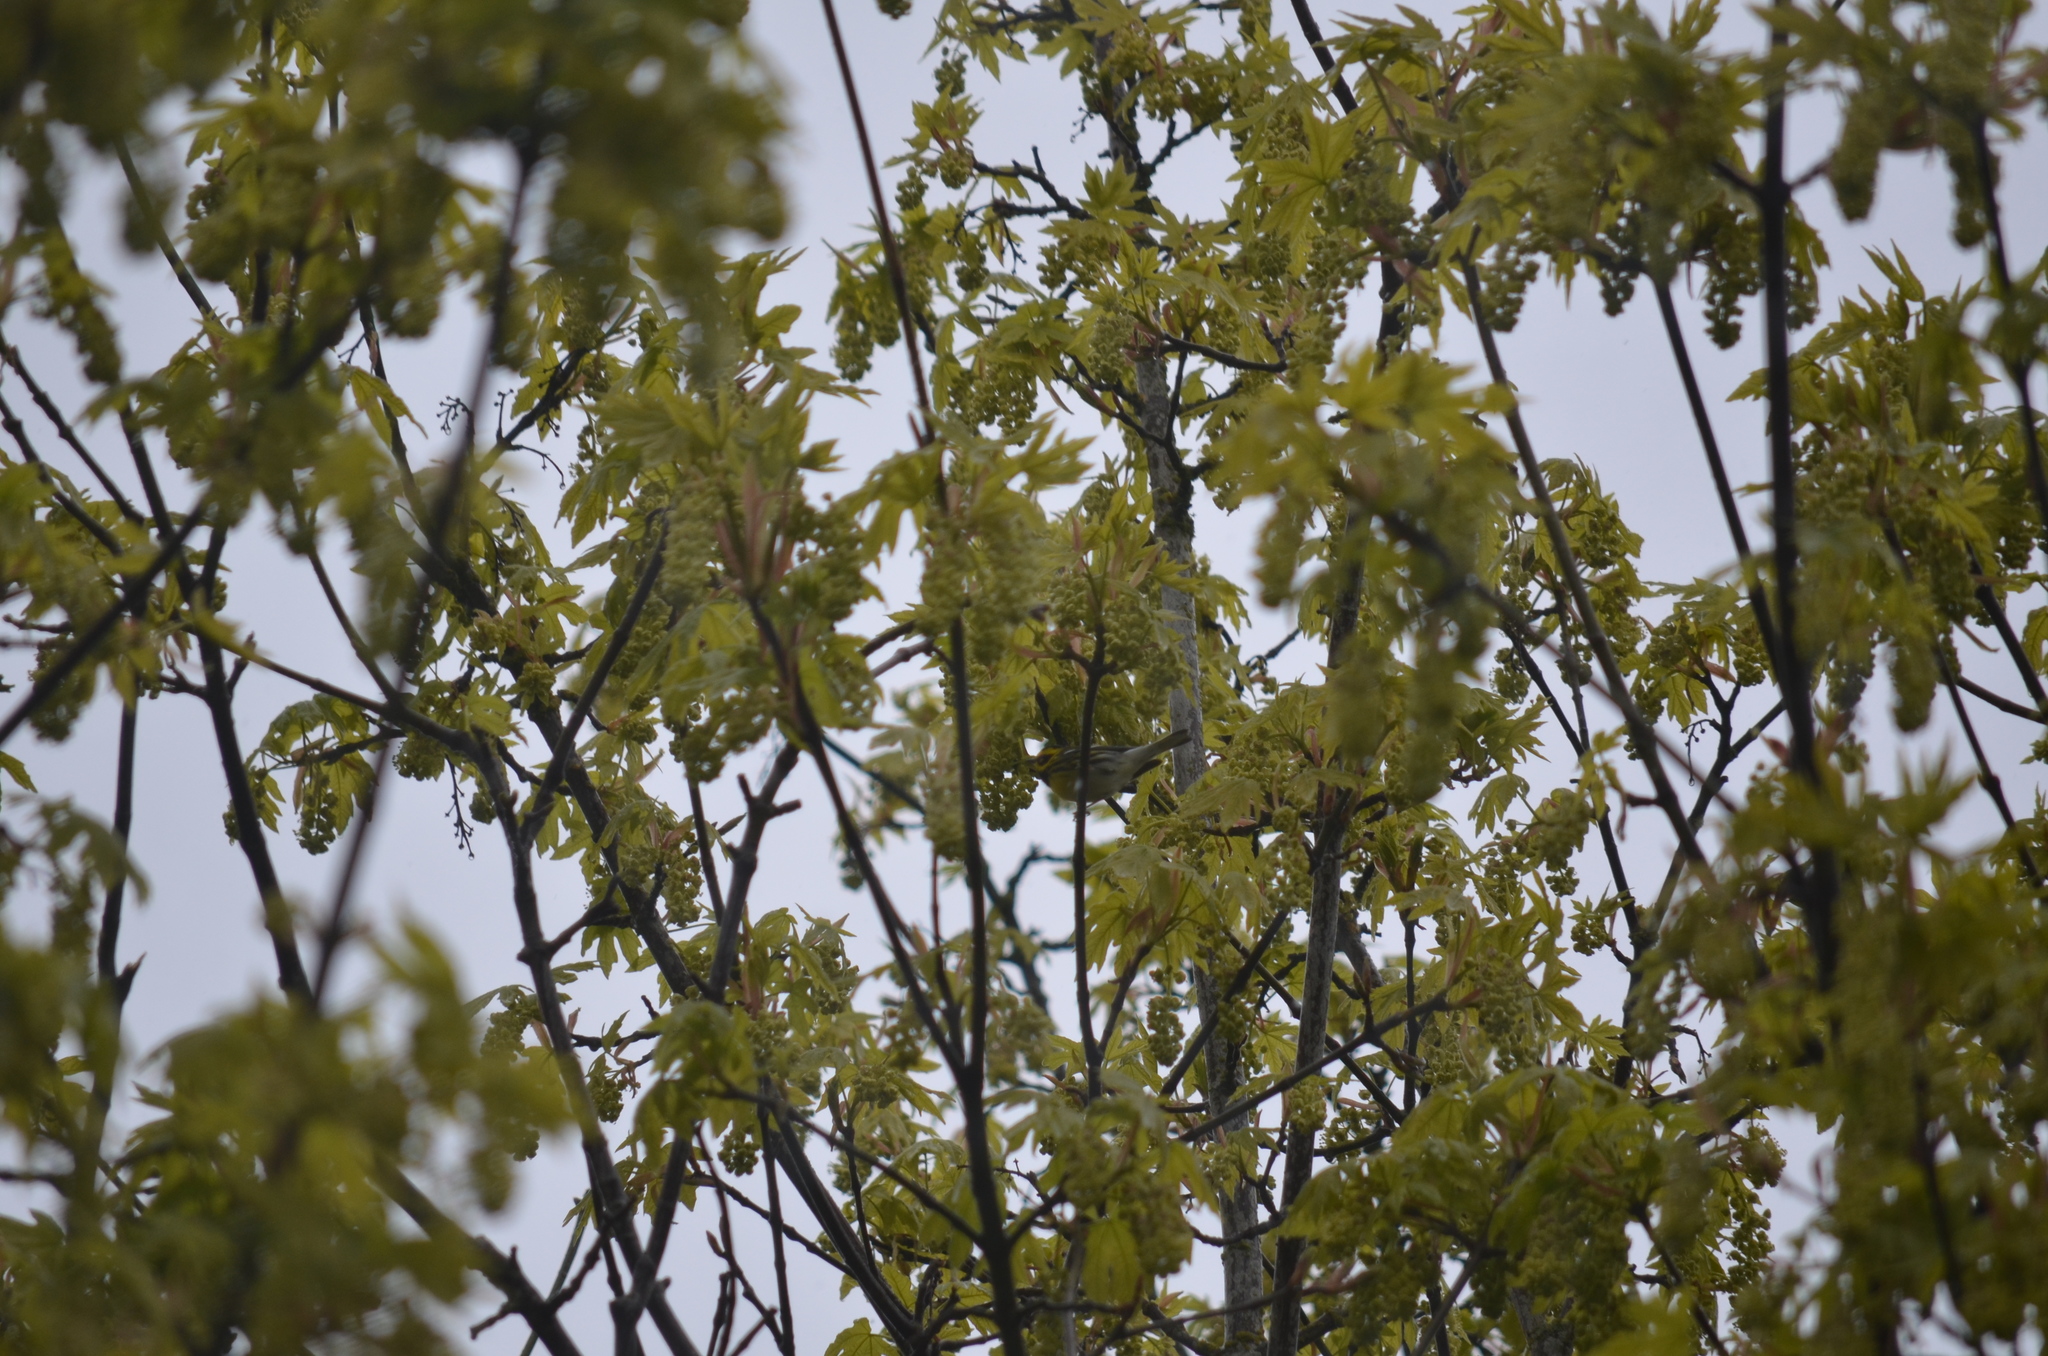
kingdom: Animalia
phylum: Chordata
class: Aves
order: Passeriformes
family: Parulidae
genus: Setophaga
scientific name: Setophaga townsendi
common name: Townsend's warbler
